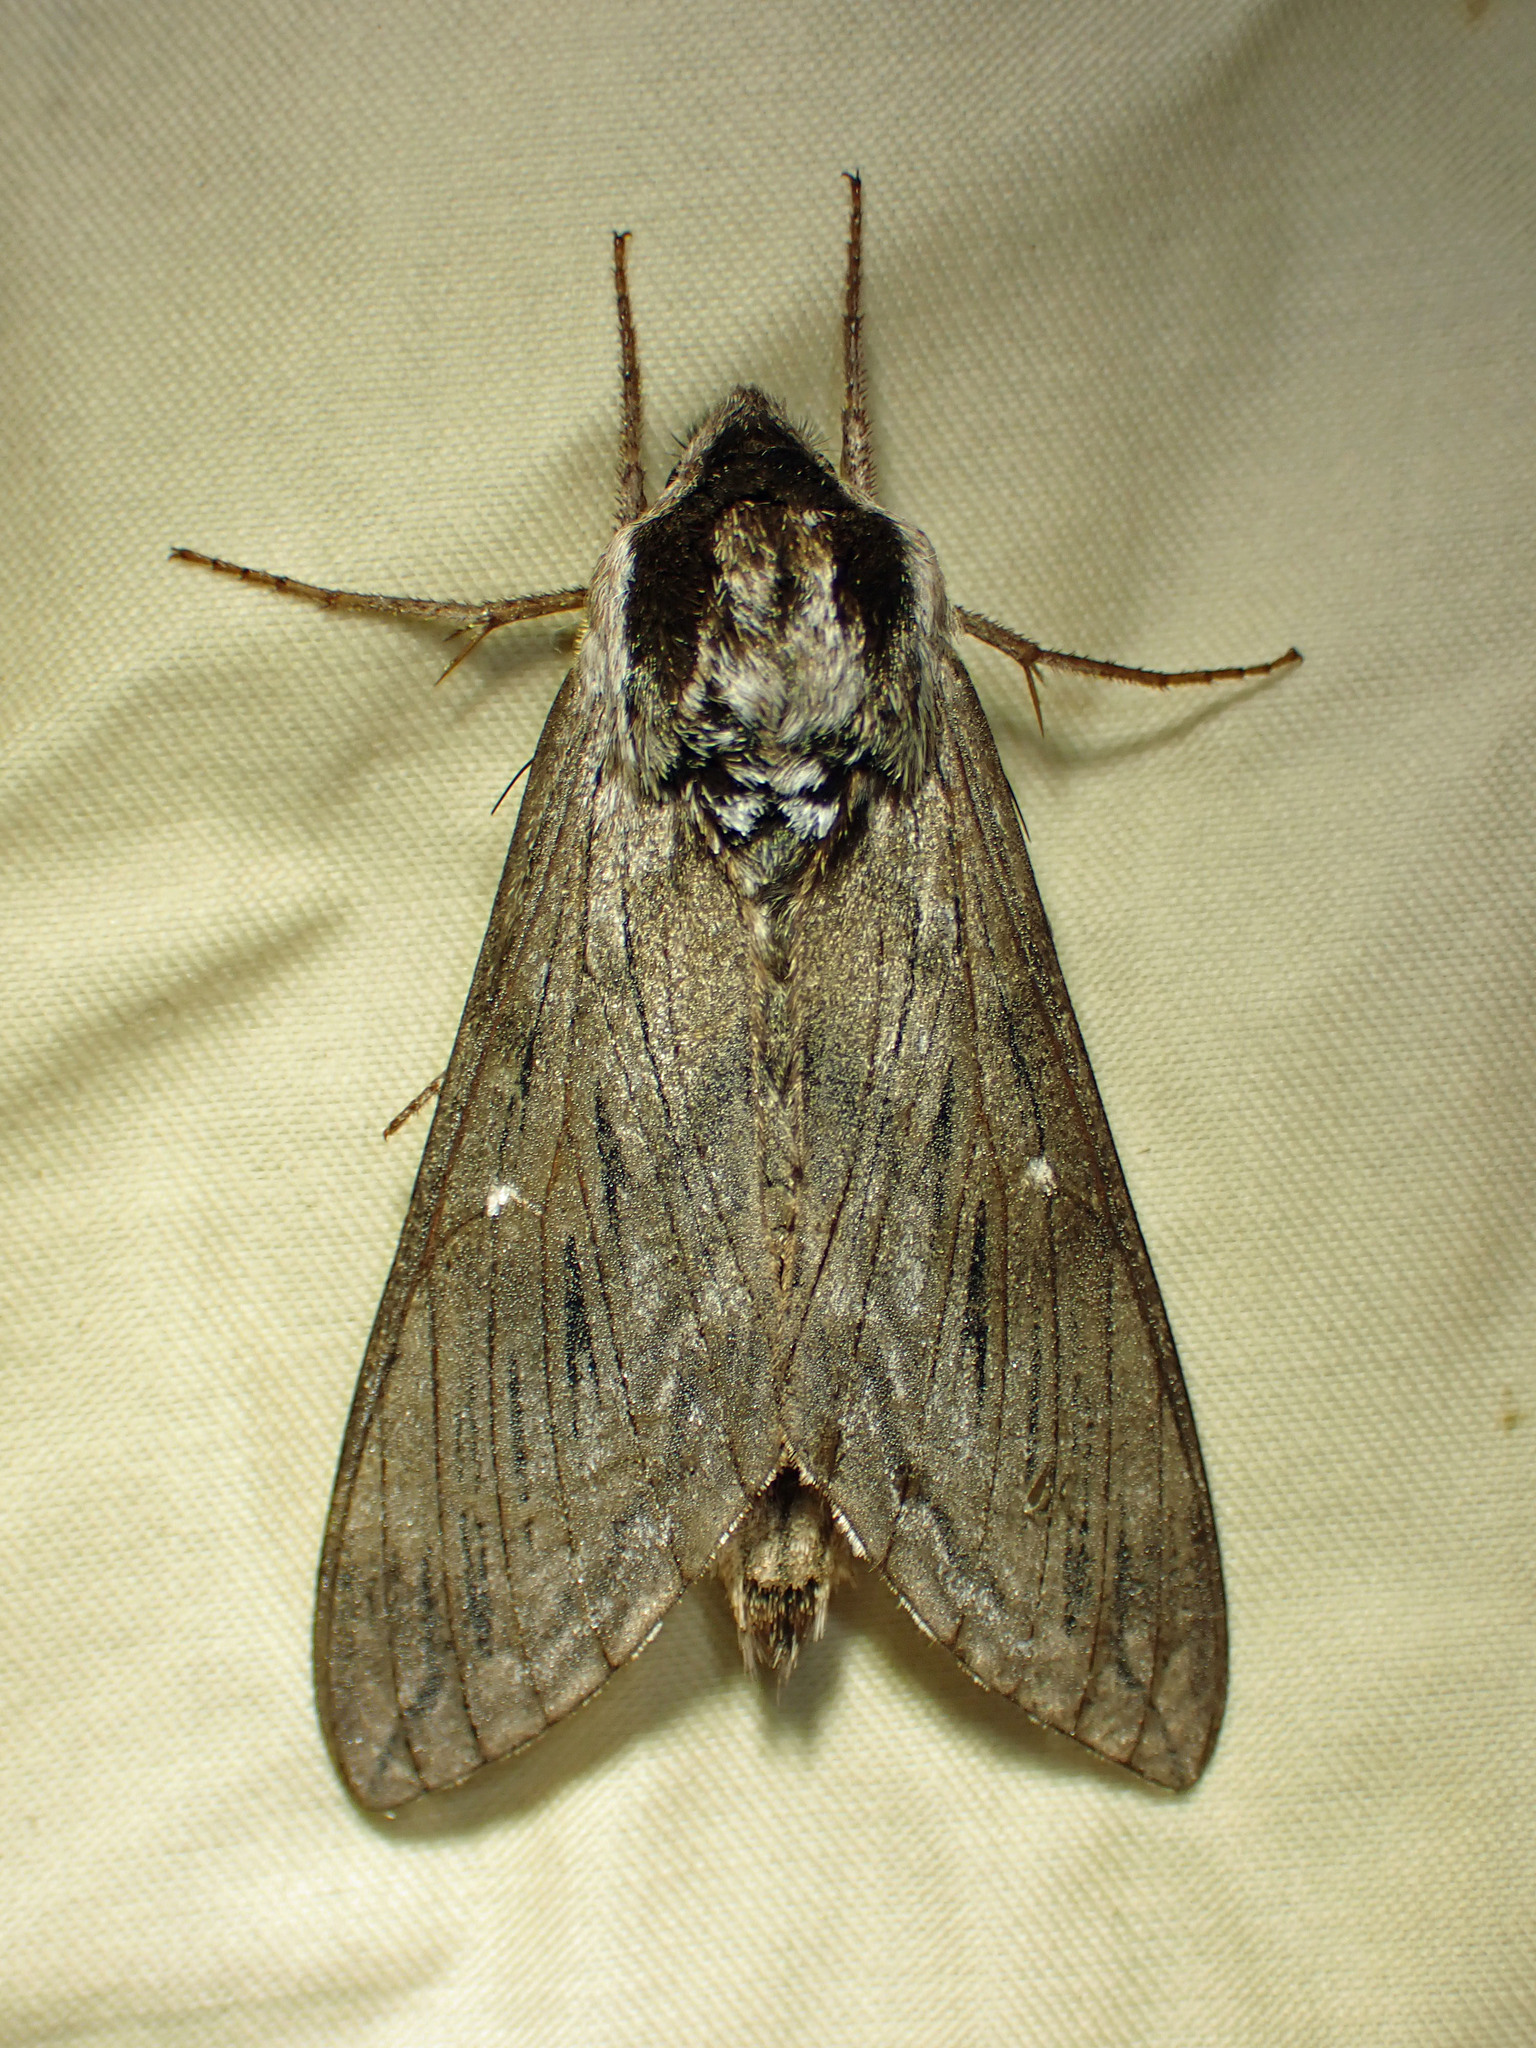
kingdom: Animalia
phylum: Arthropoda
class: Insecta
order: Lepidoptera
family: Sphingidae
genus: Sphinx
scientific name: Sphinx poecila
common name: Northern apple sphinx
